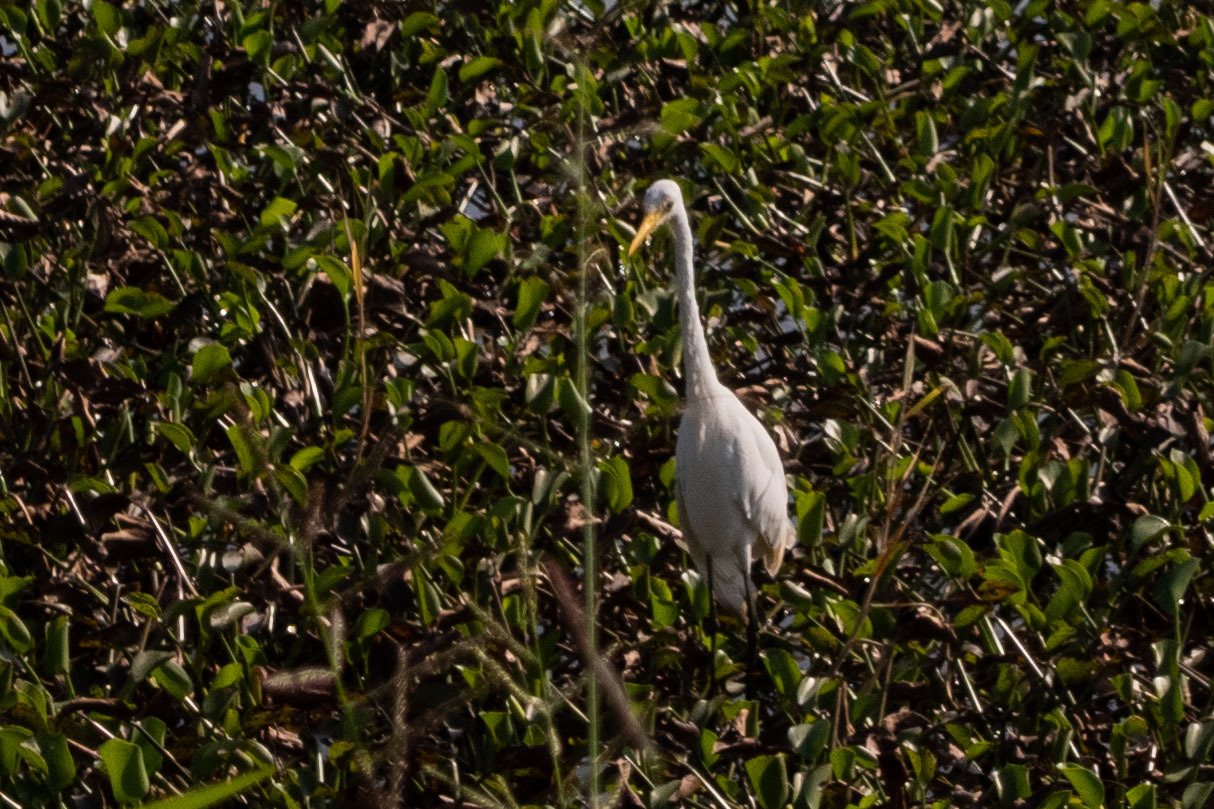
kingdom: Animalia
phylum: Chordata
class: Aves
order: Pelecaniformes
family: Ardeidae
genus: Egretta
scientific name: Egretta intermedia
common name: Intermediate egret
